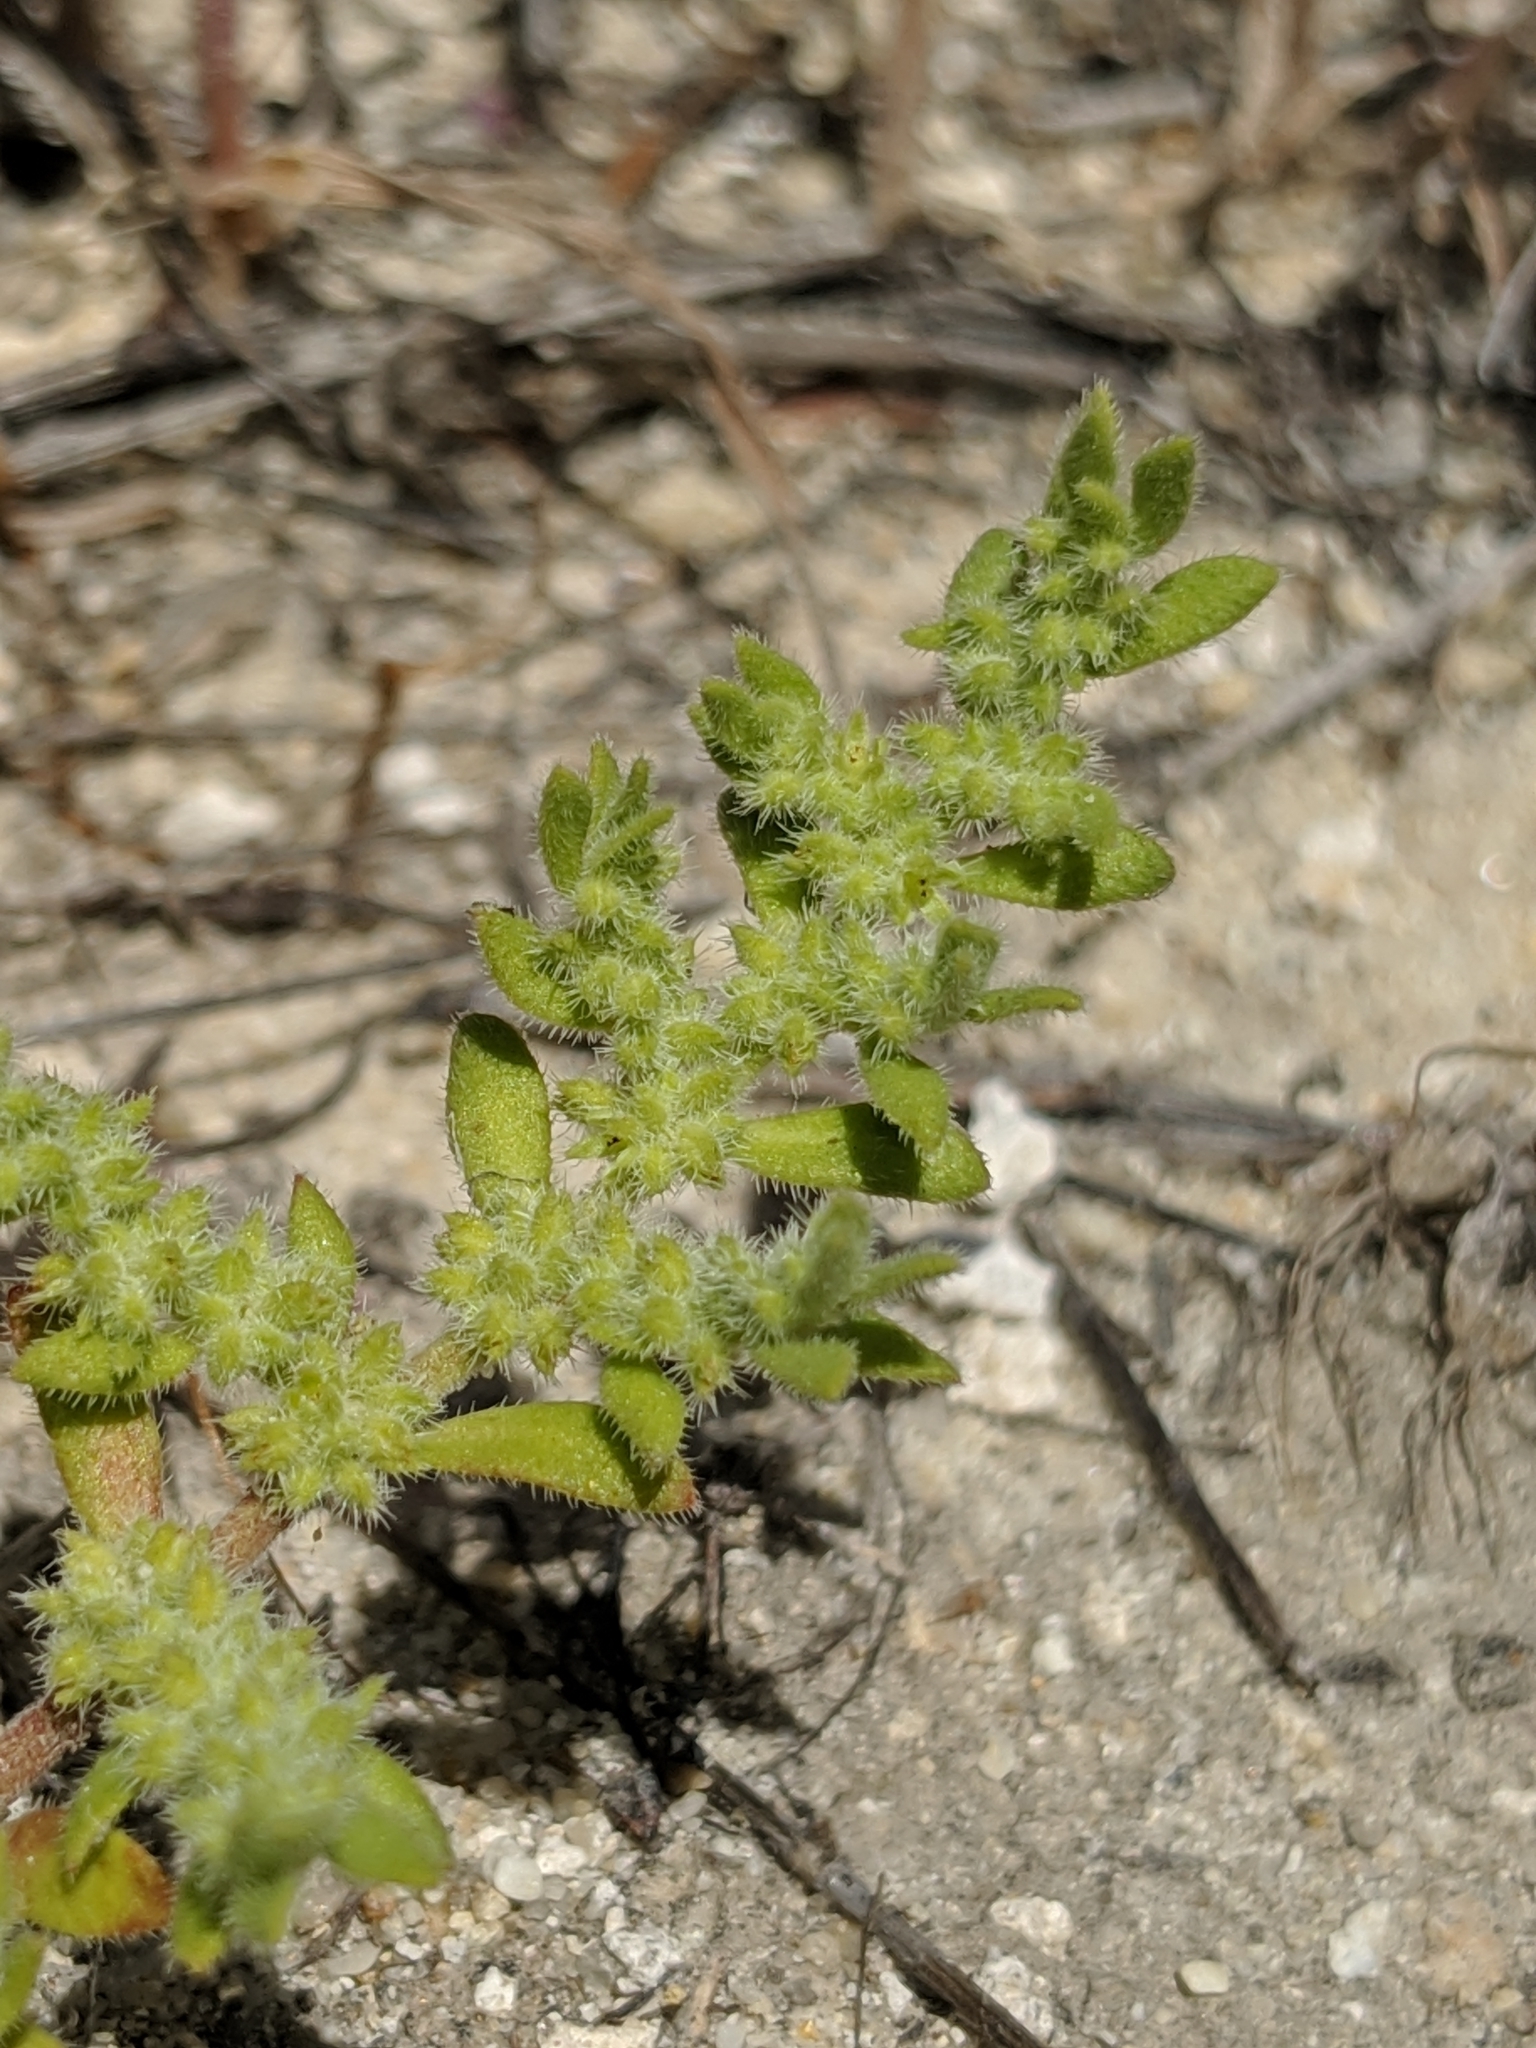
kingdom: Plantae
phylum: Tracheophyta
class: Magnoliopsida
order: Caryophyllales
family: Caryophyllaceae
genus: Herniaria
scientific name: Herniaria cinerea
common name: Hairy rupturewort
